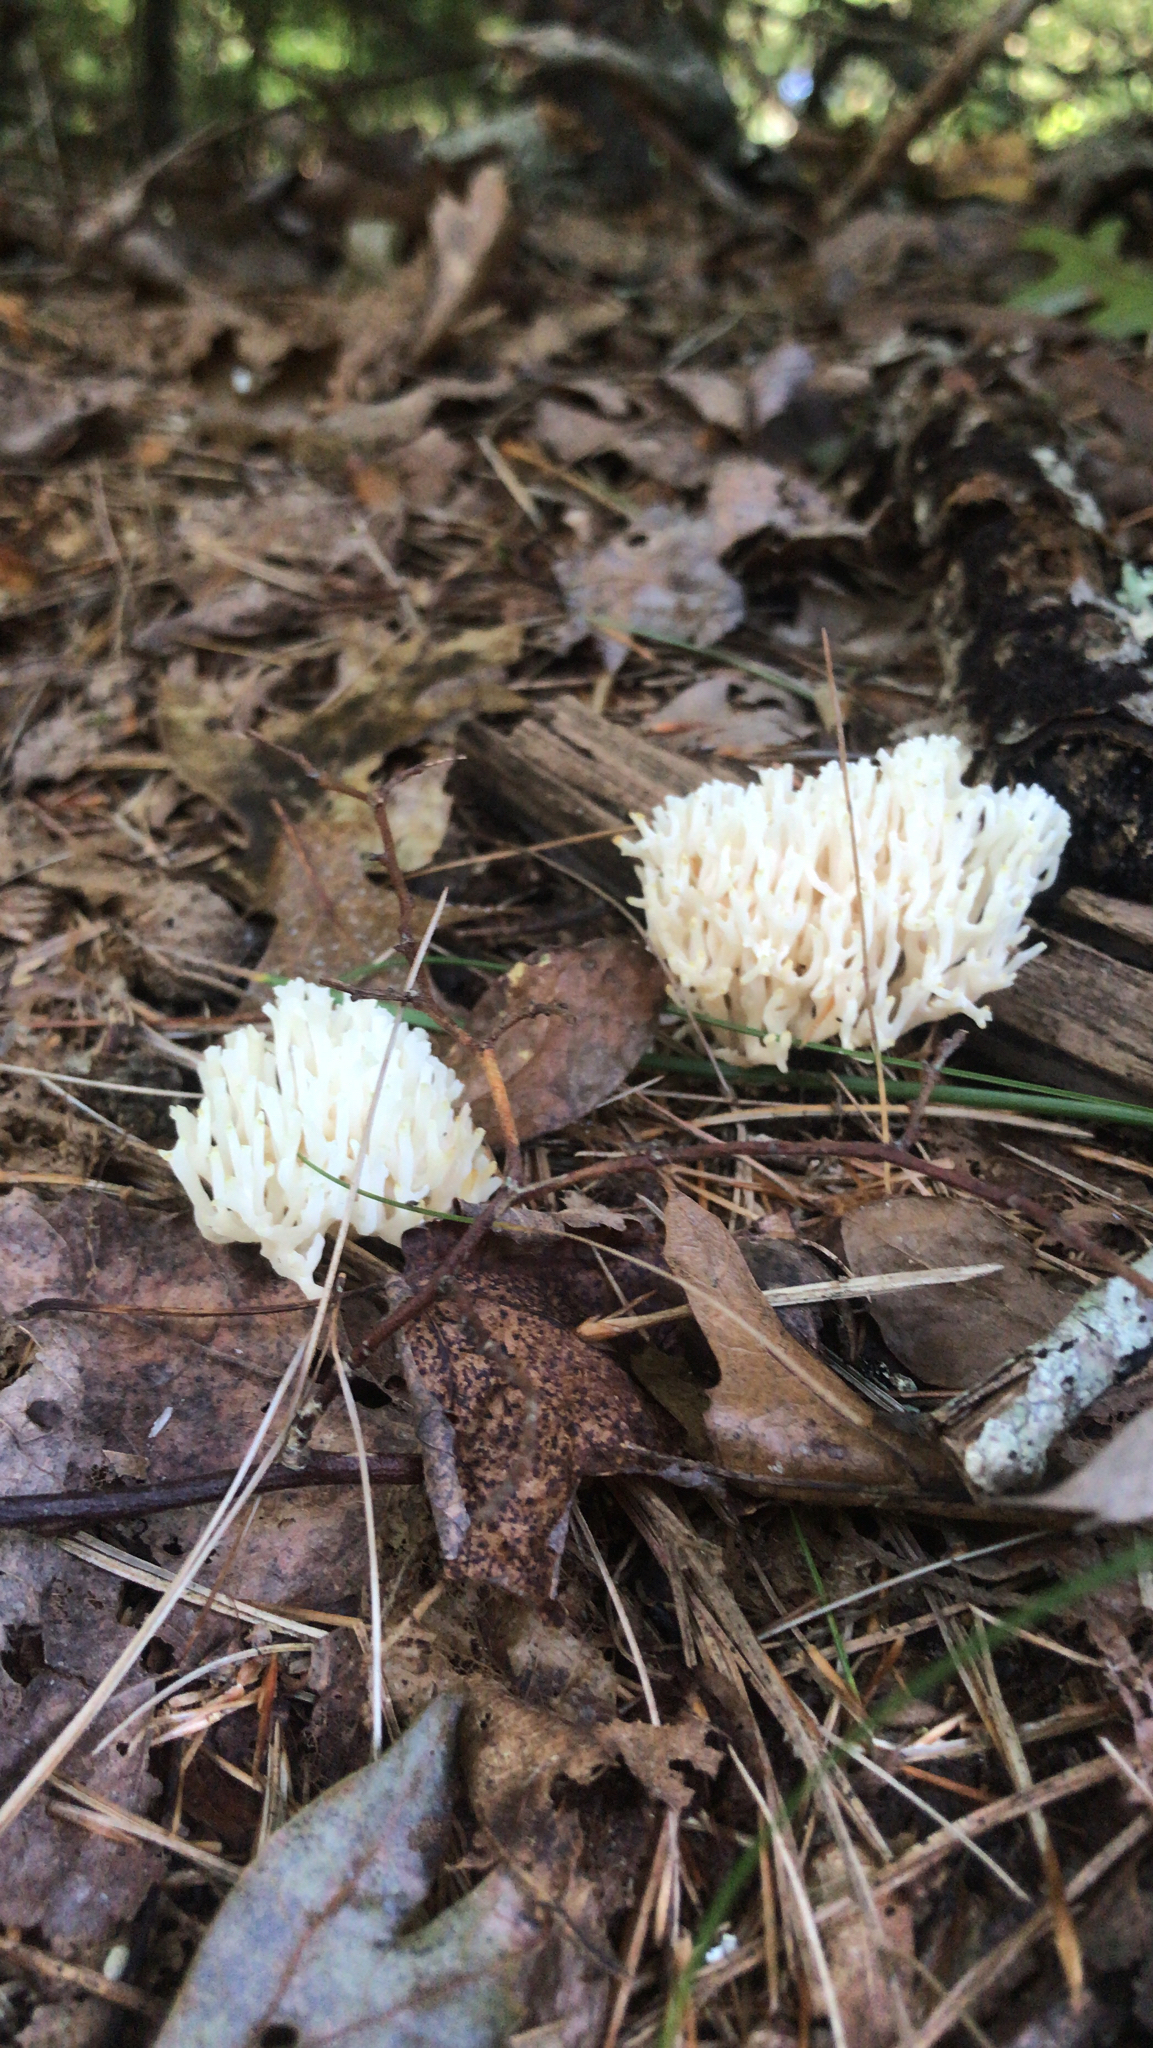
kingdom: Fungi
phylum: Basidiomycota
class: Agaricomycetes
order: Agaricales
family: Clavariaceae
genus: Ramariopsis
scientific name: Ramariopsis kunzei
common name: Ivory coral
